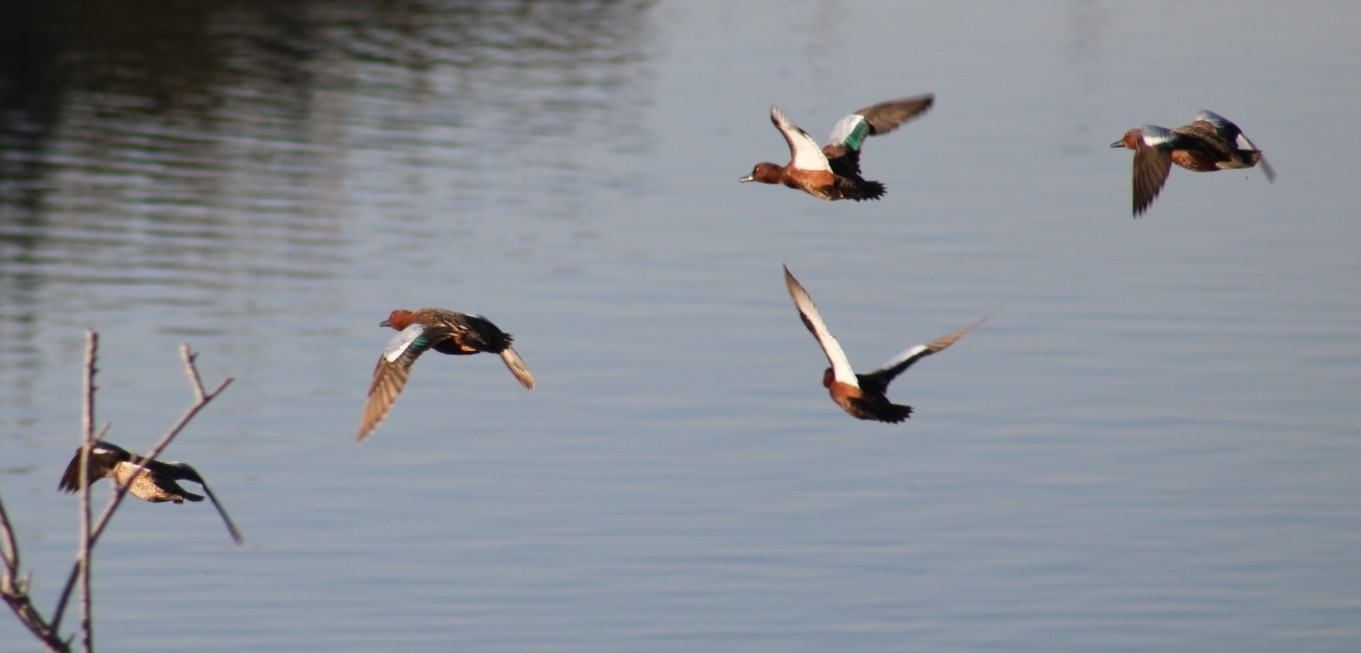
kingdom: Animalia
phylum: Chordata
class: Aves
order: Anseriformes
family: Anatidae
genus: Spatula
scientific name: Spatula cyanoptera
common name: Cinnamon teal
